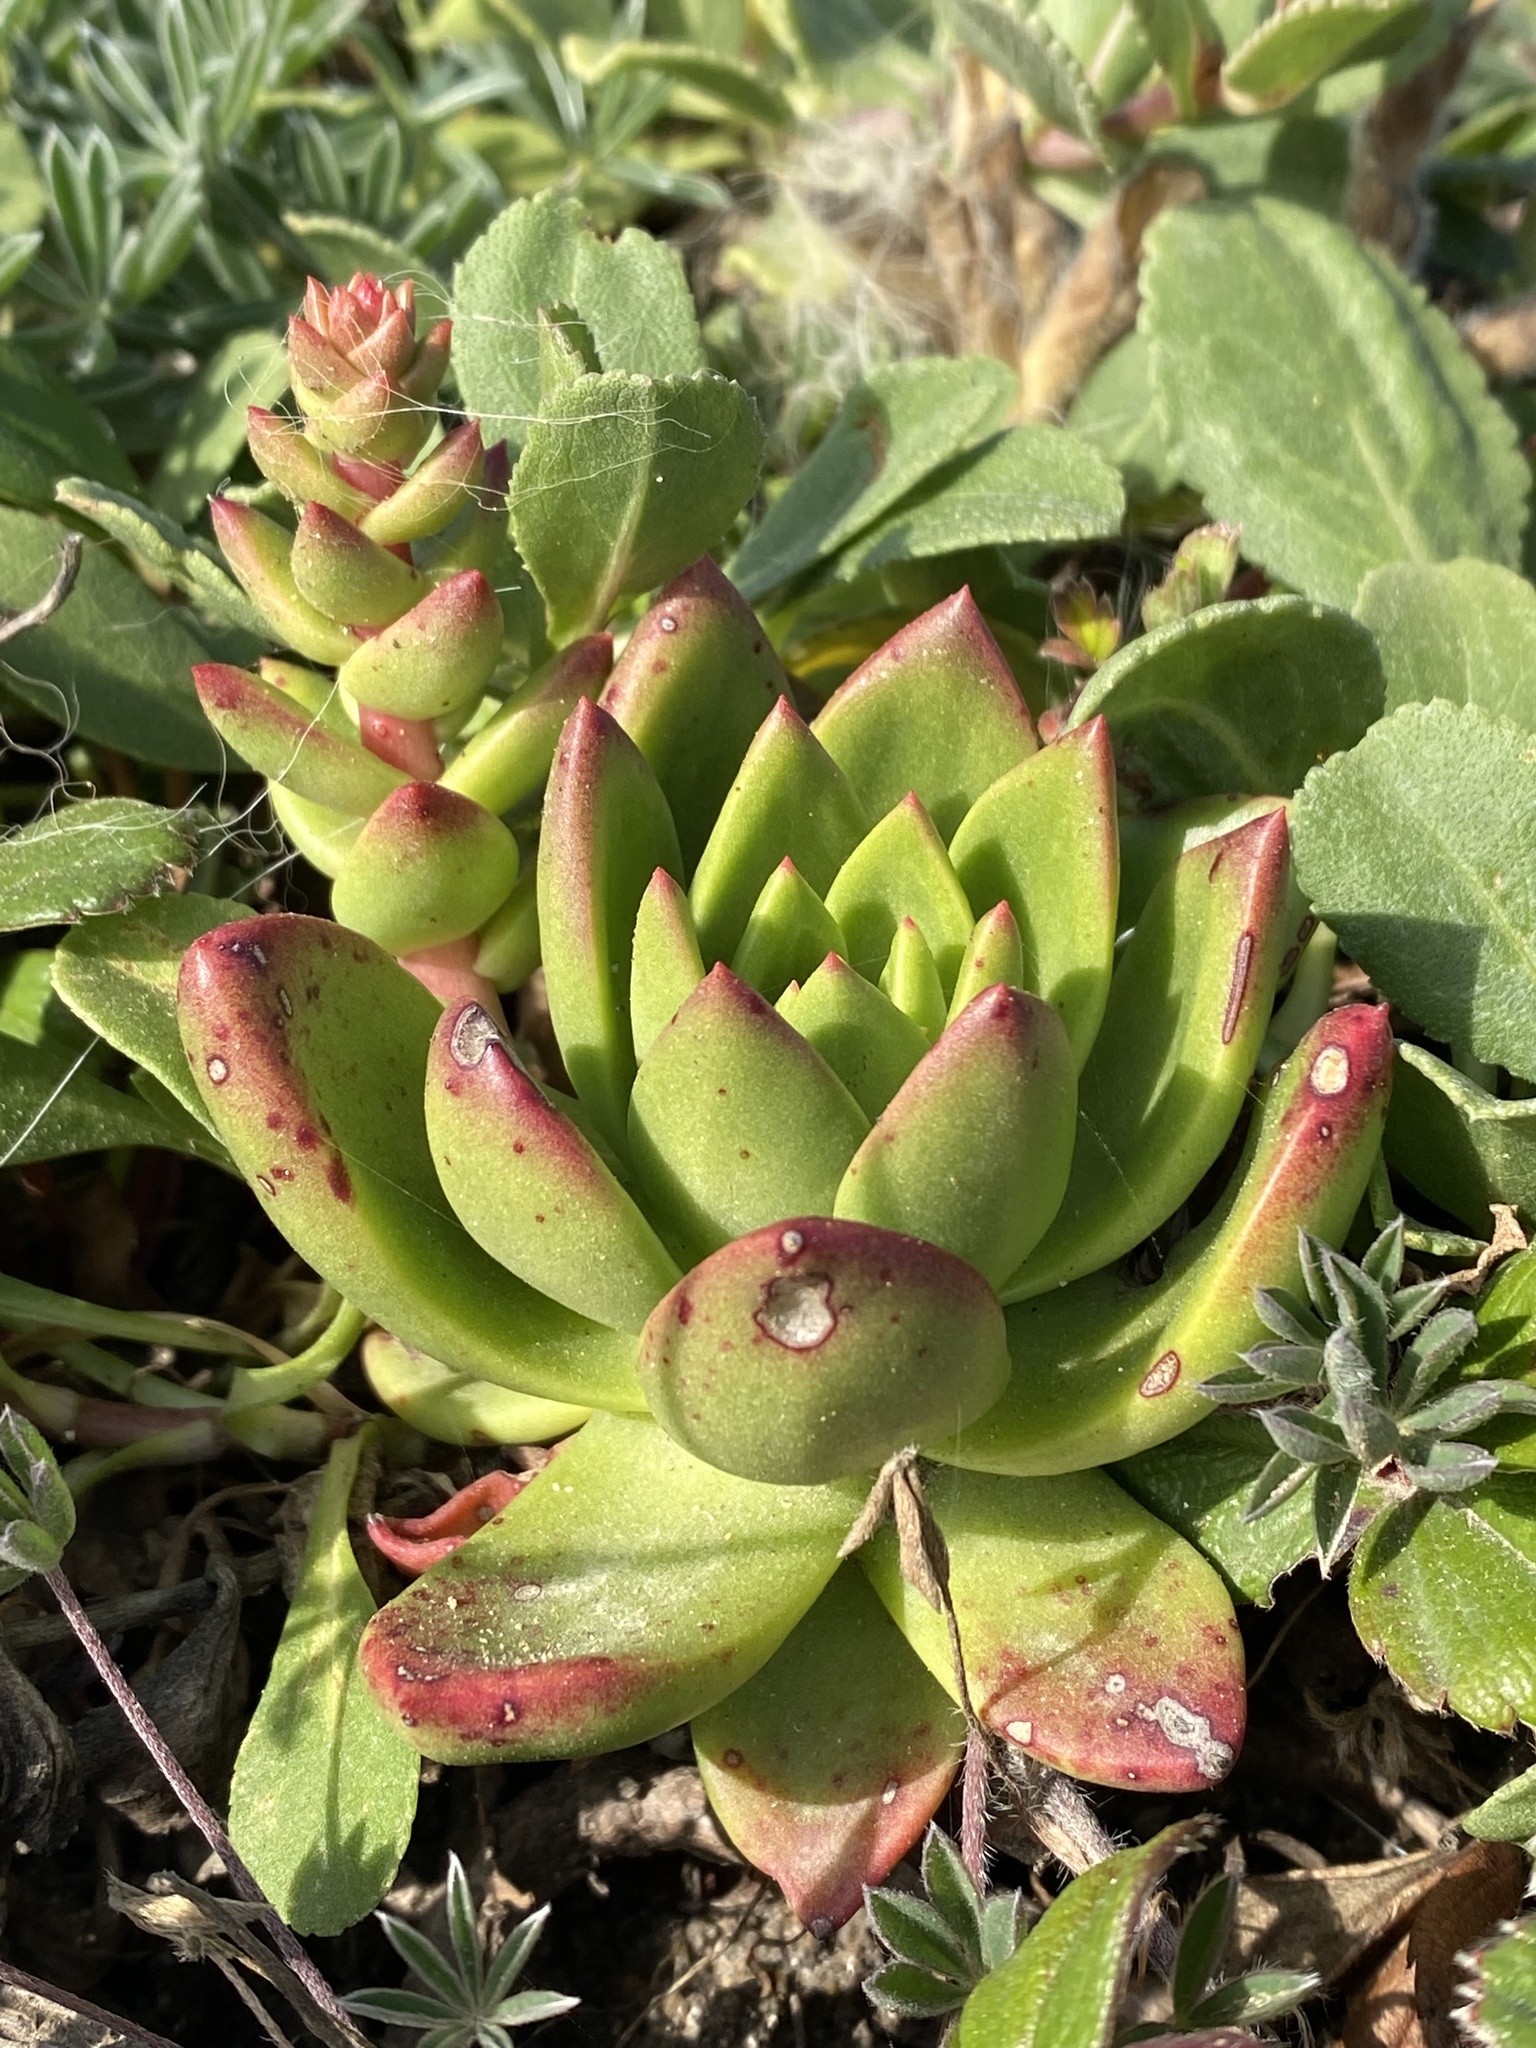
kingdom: Plantae
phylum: Tracheophyta
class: Magnoliopsida
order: Saxifragales
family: Crassulaceae
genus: Dudleya
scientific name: Dudleya farinosa
